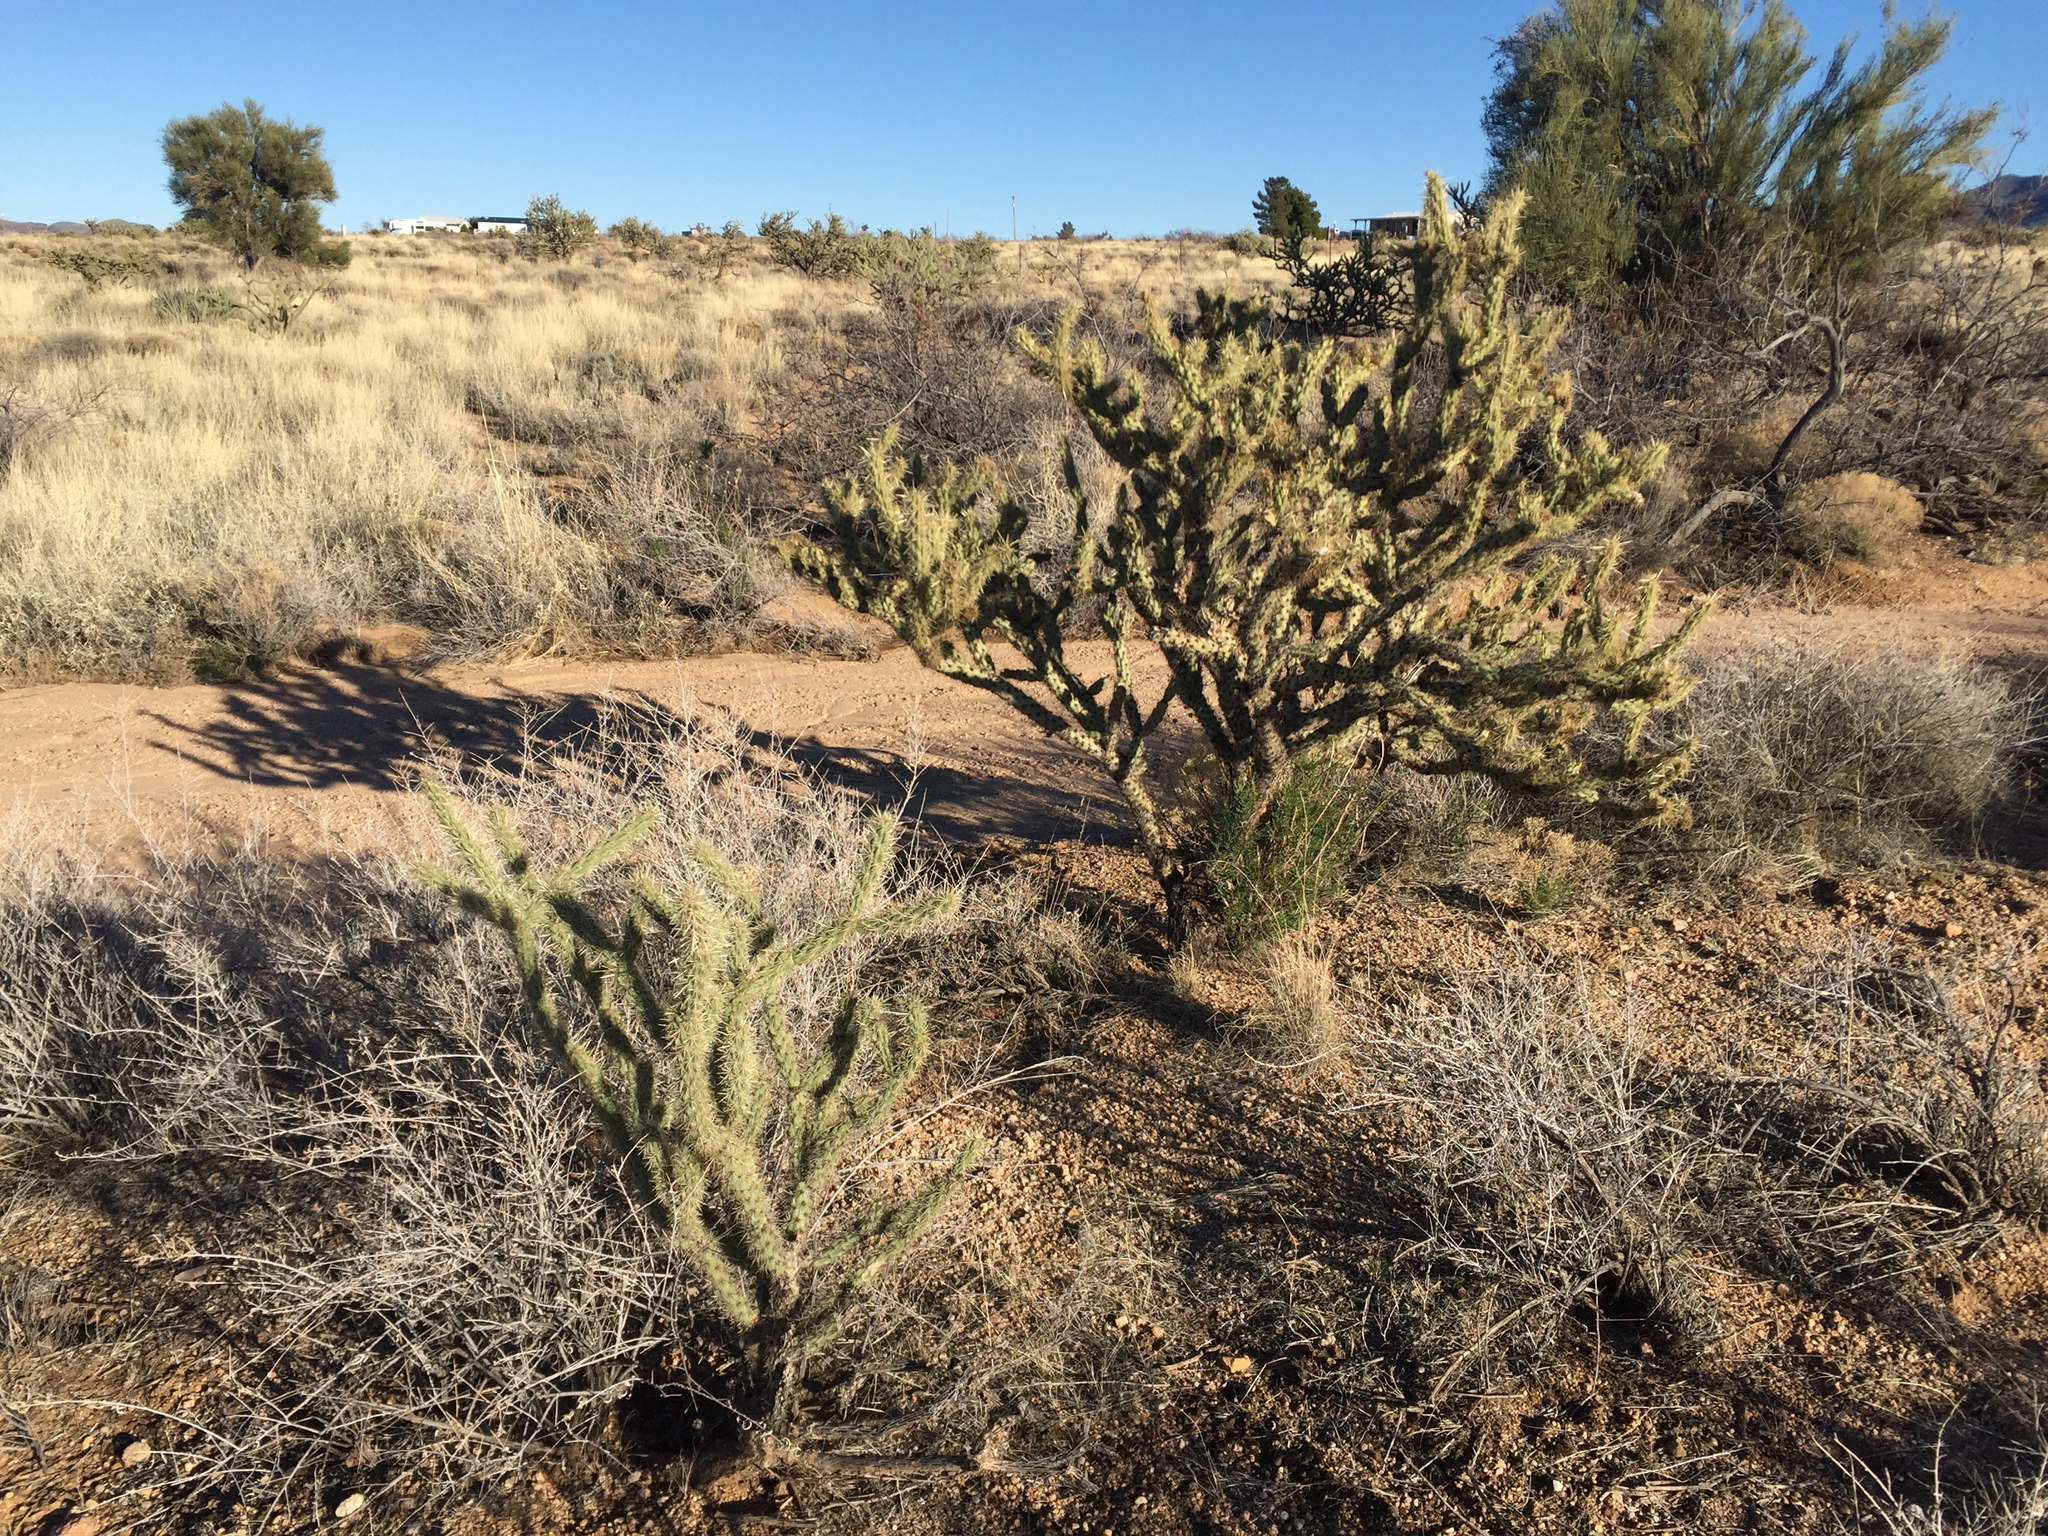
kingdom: Plantae
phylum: Tracheophyta
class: Magnoliopsida
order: Caryophyllales
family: Cactaceae
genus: Cylindropuntia
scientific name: Cylindropuntia acanthocarpa
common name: Buckhorn cholla
